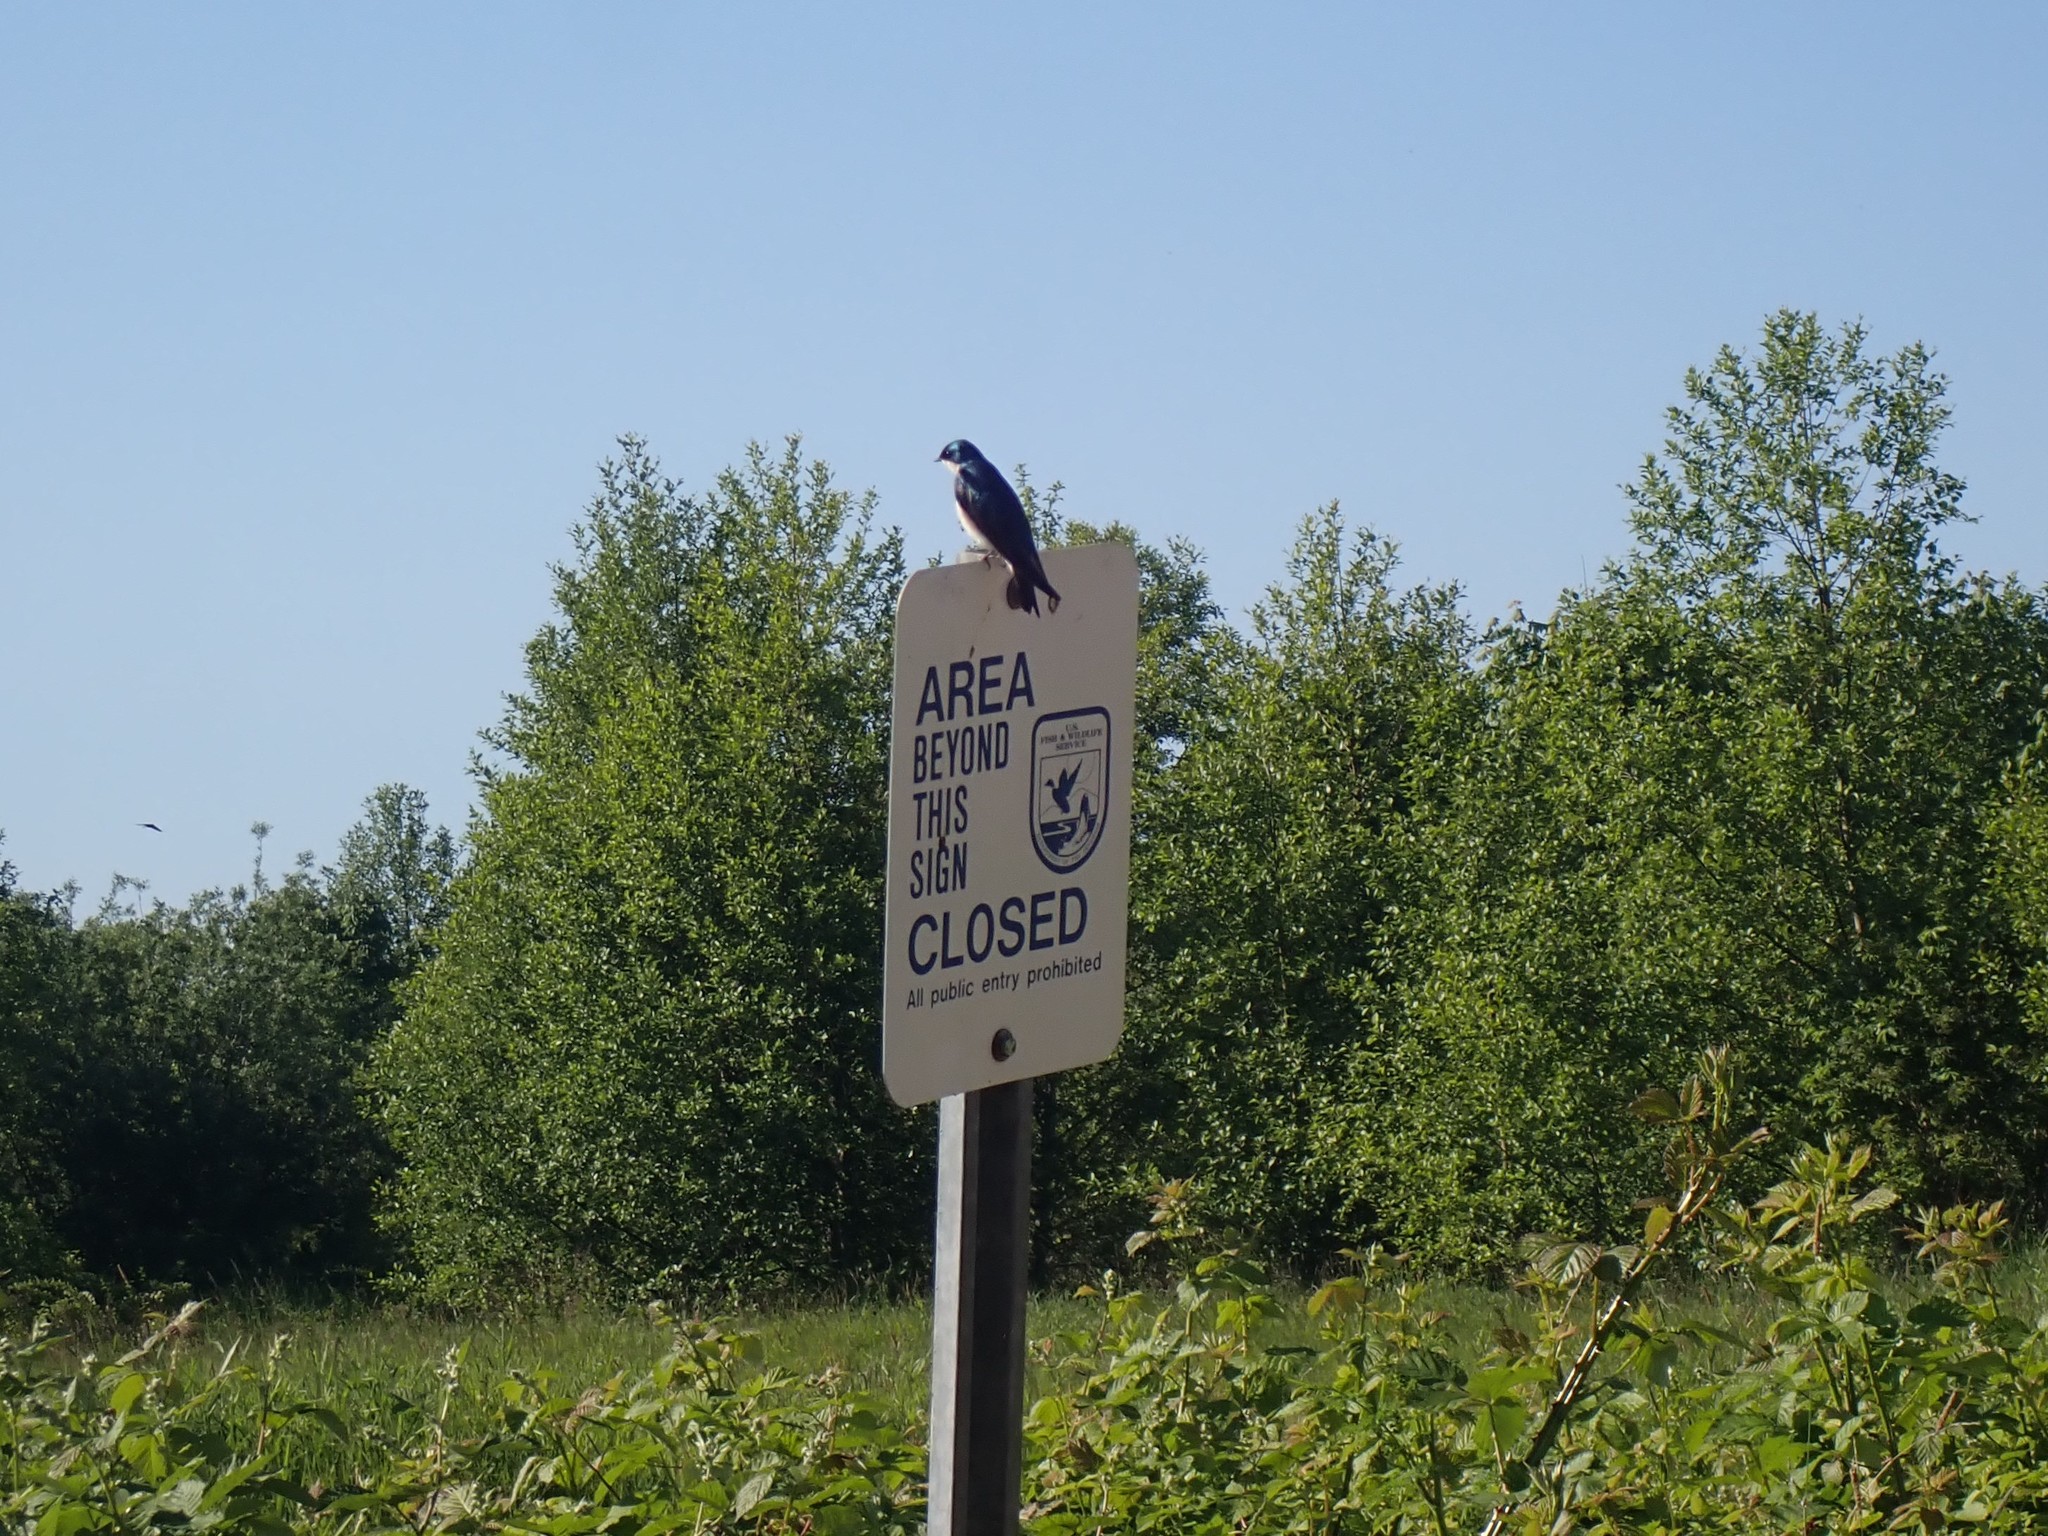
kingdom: Animalia
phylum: Chordata
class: Aves
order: Passeriformes
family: Hirundinidae
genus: Tachycineta
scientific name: Tachycineta bicolor
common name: Tree swallow
